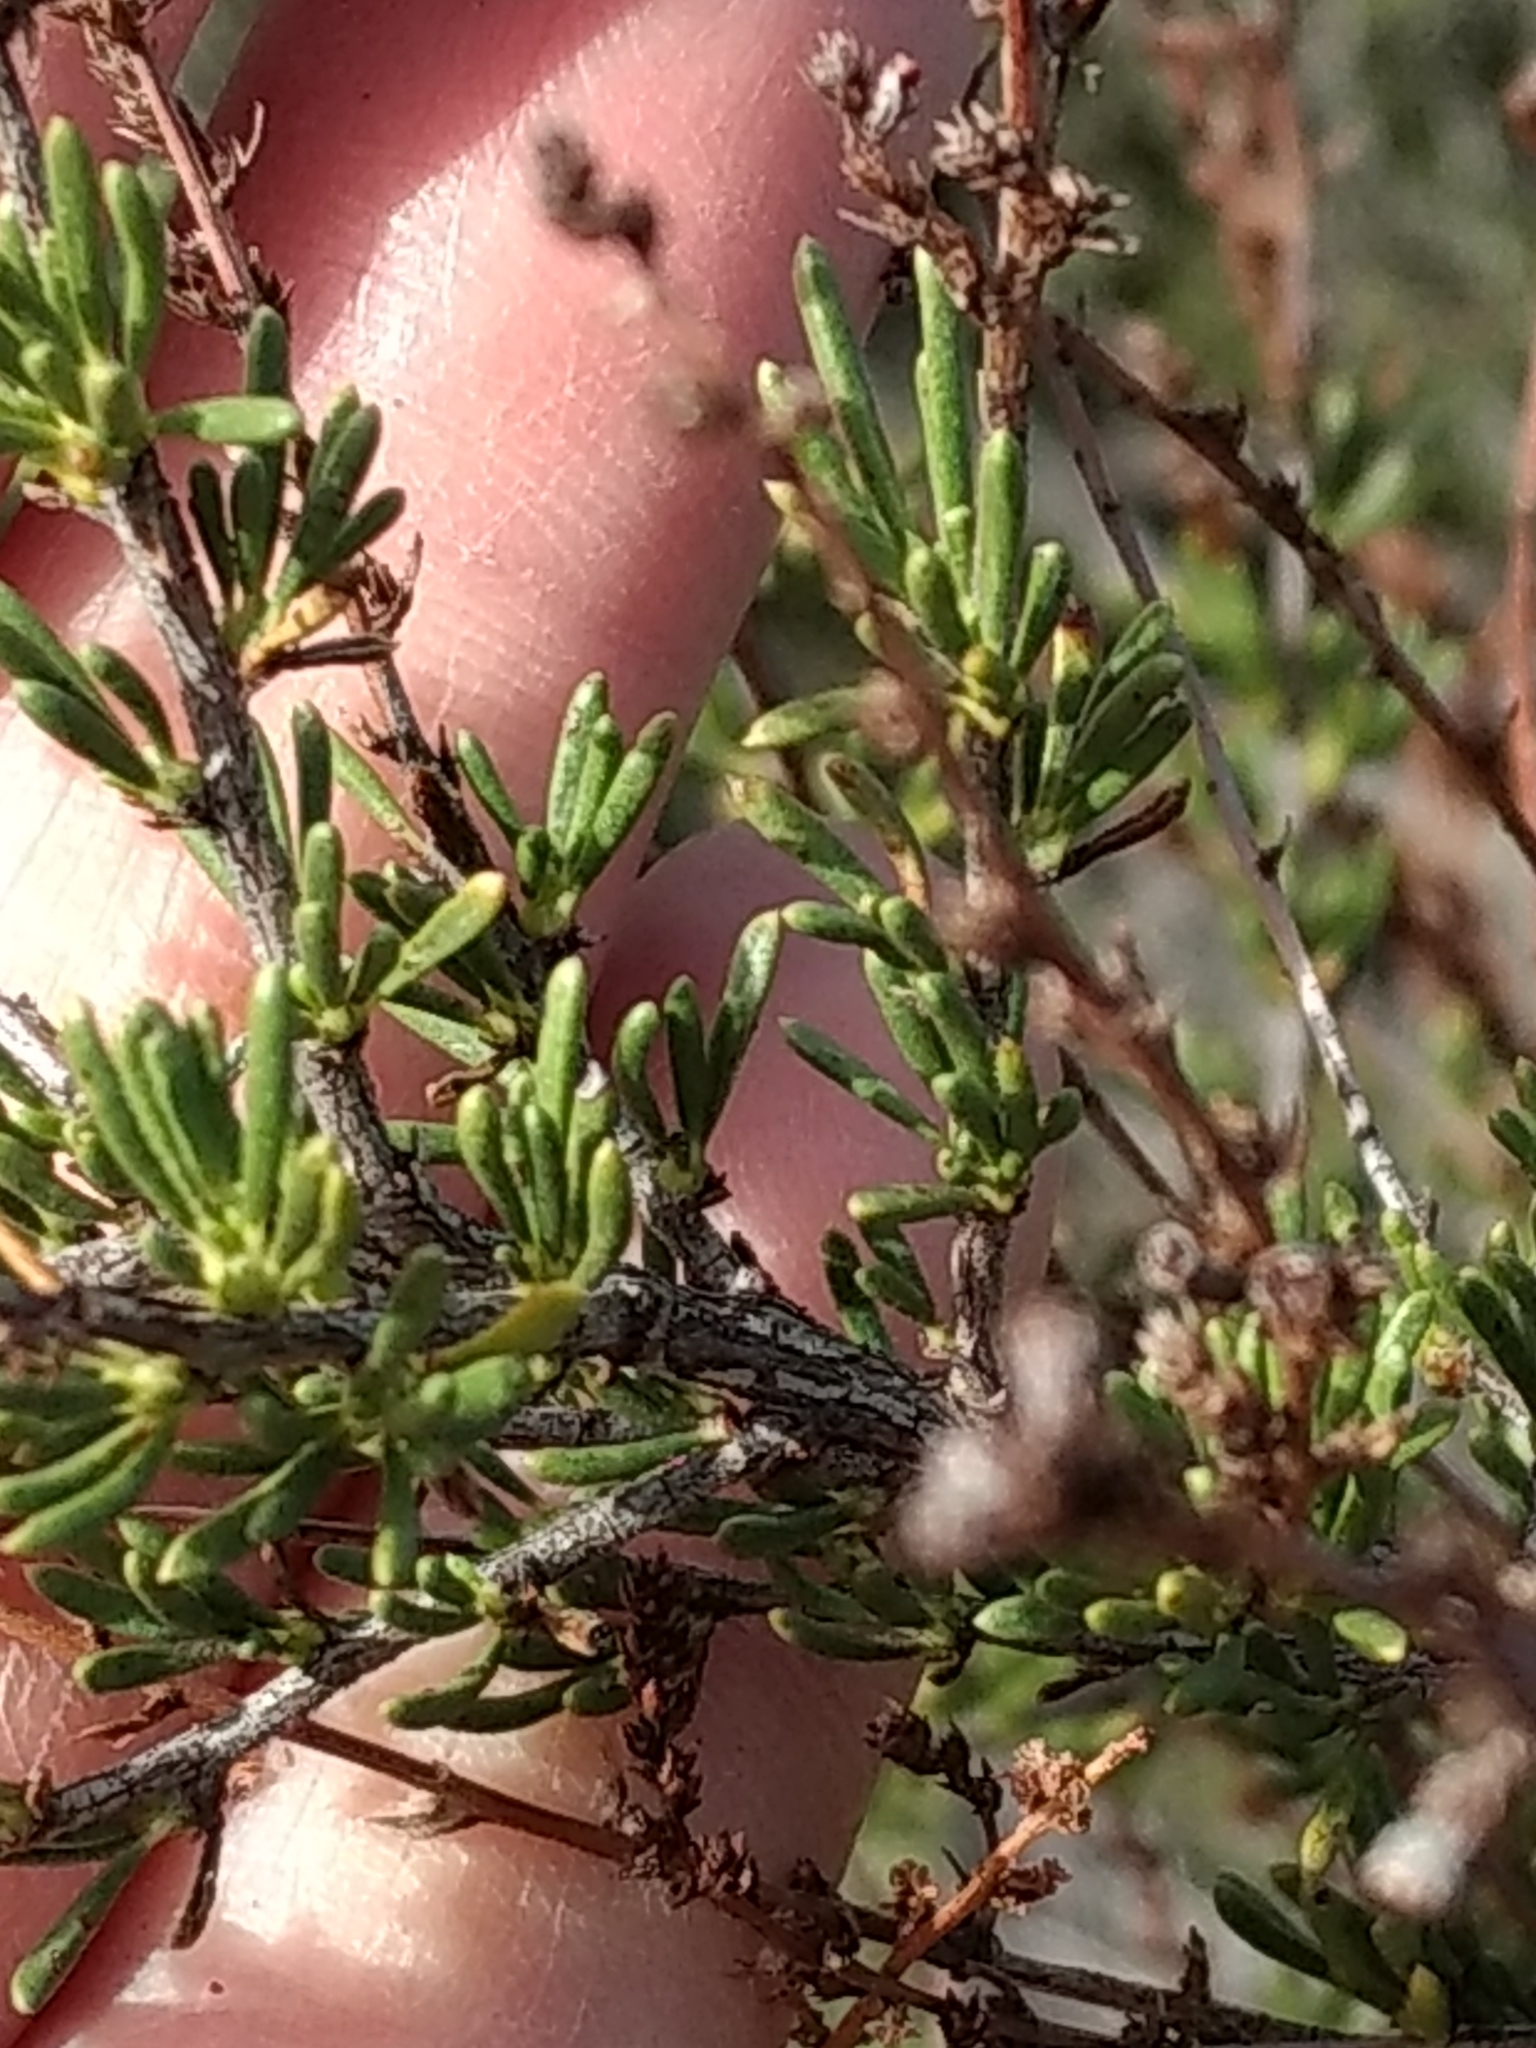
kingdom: Plantae
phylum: Tracheophyta
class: Magnoliopsida
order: Rosales
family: Rosaceae
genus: Adenostoma
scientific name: Adenostoma fasciculatum
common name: Chamise
